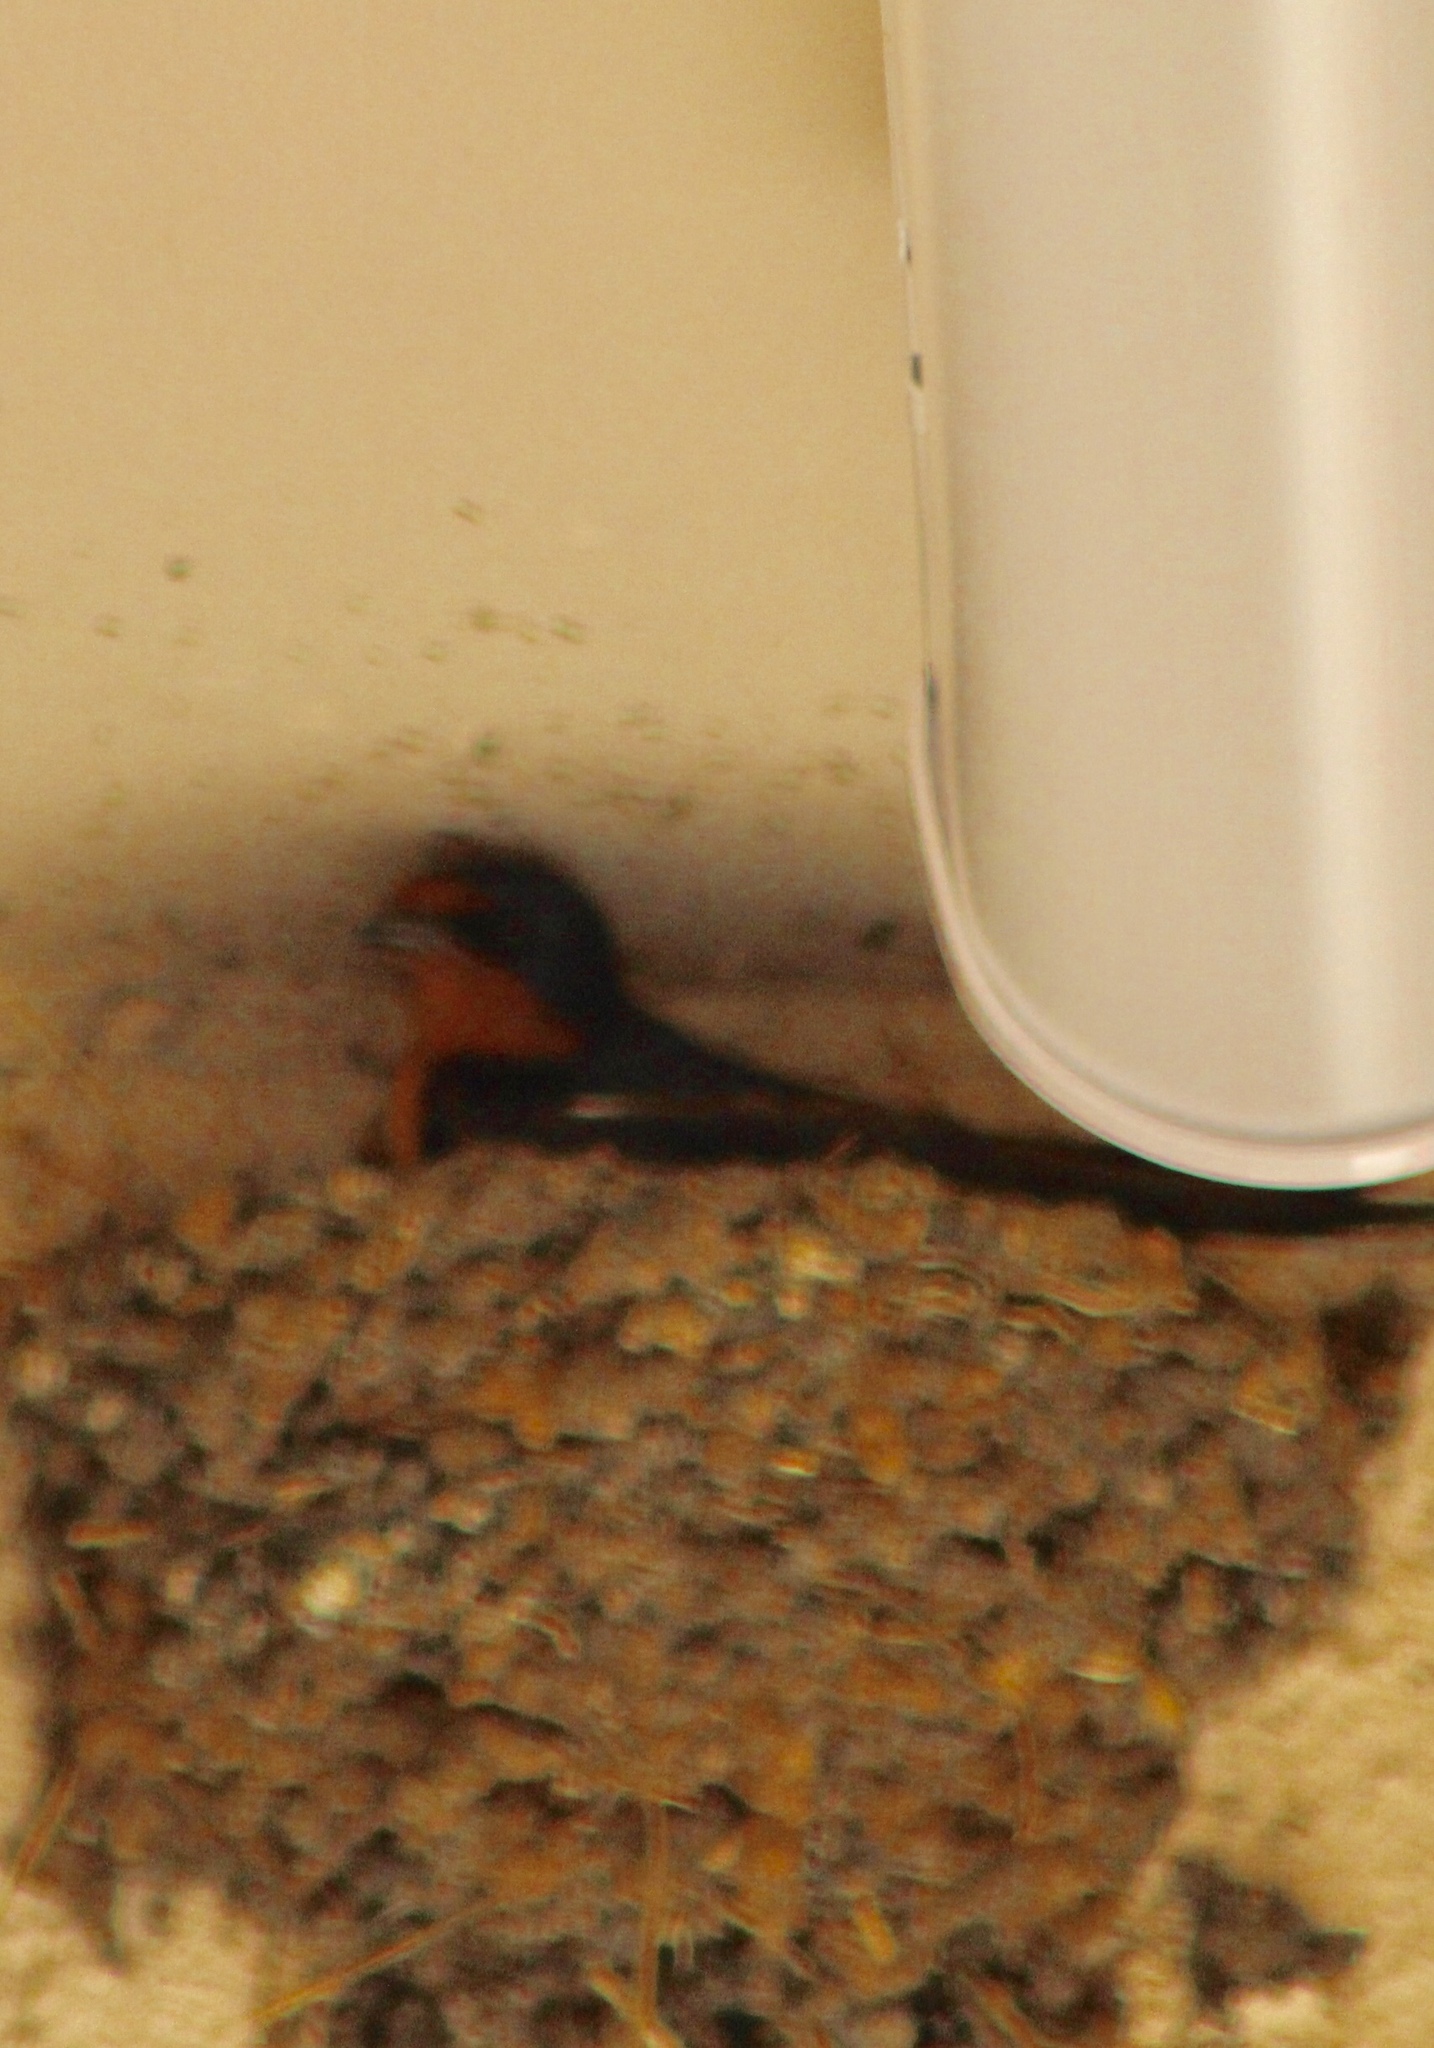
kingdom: Animalia
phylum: Chordata
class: Aves
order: Passeriformes
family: Hirundinidae
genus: Hirundo
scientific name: Hirundo rustica
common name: Barn swallow
